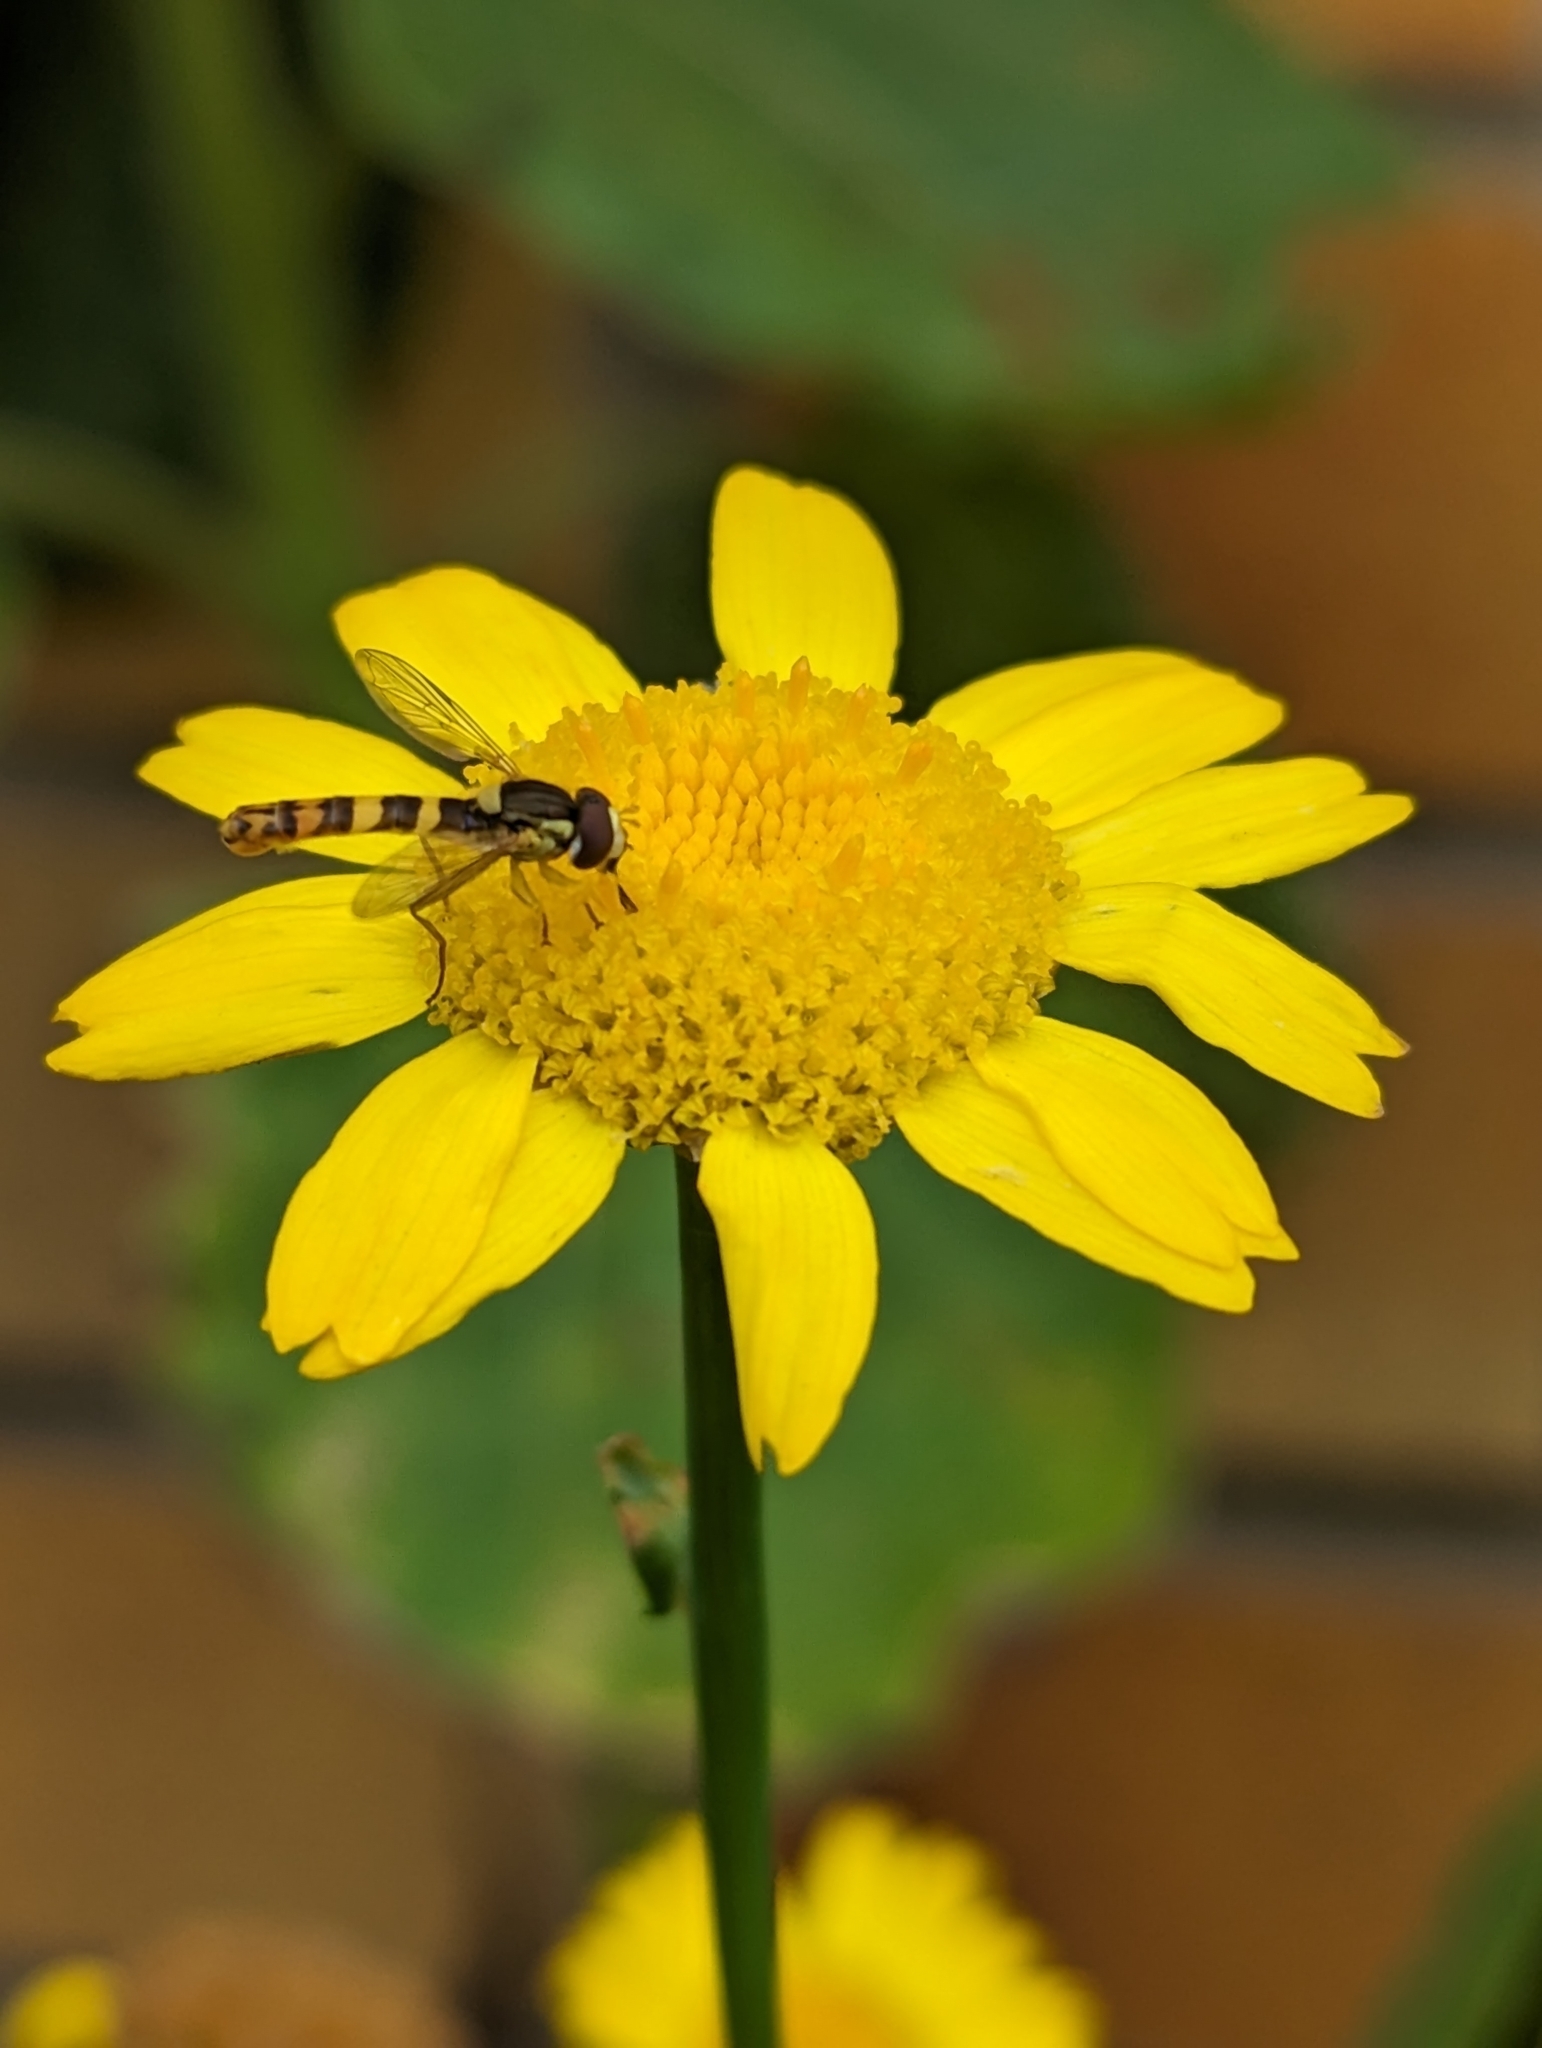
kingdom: Animalia
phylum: Arthropoda
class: Insecta
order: Diptera
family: Syrphidae
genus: Sphaerophoria
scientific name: Sphaerophoria scripta
